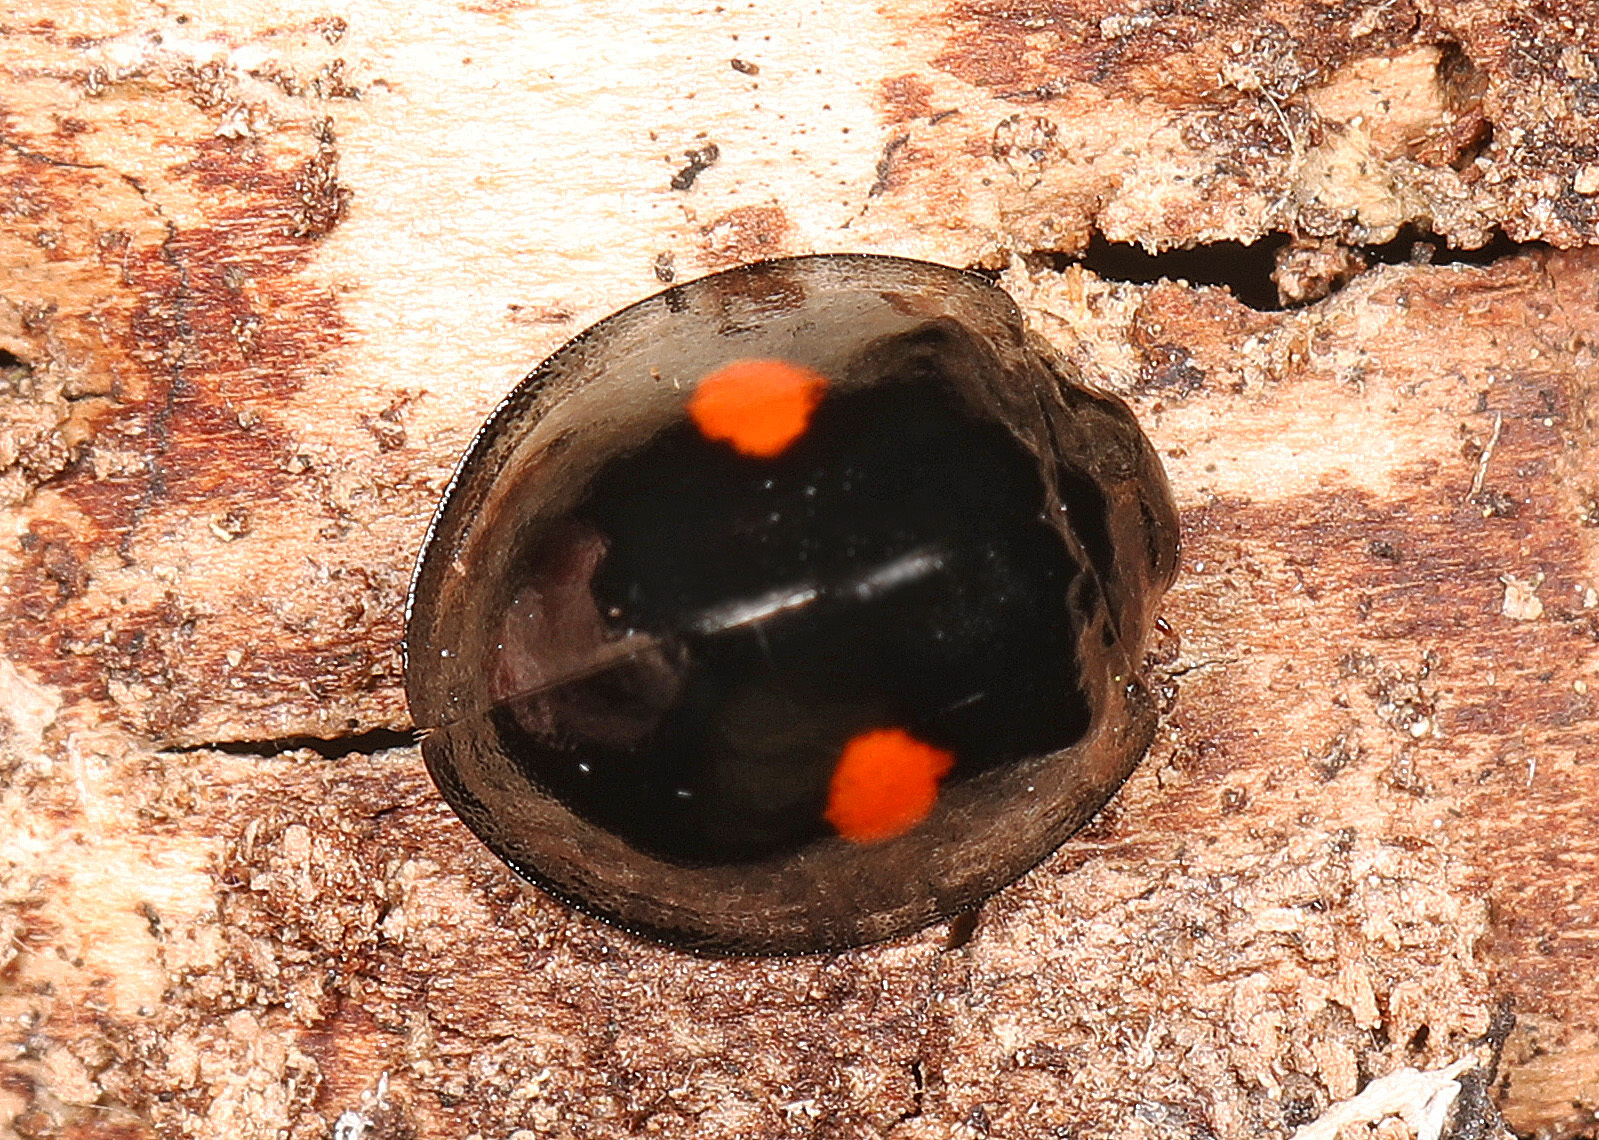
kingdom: Animalia
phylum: Arthropoda
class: Insecta
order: Coleoptera
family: Coccinellidae
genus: Chilocorus
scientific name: Chilocorus stigma
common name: Twicestabbed lady beetle
